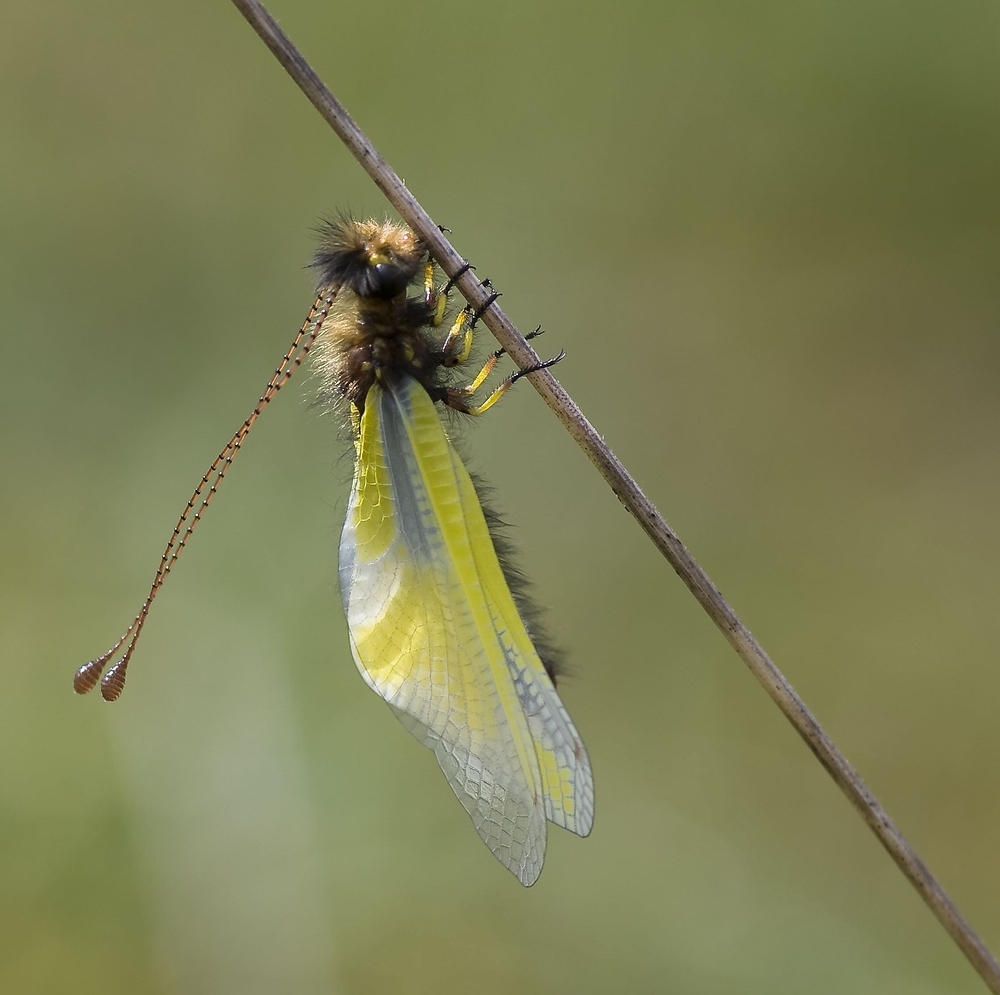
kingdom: Animalia
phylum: Arthropoda
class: Insecta
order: Neuroptera
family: Ascalaphidae
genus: Libelloides
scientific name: Libelloides coccajus
